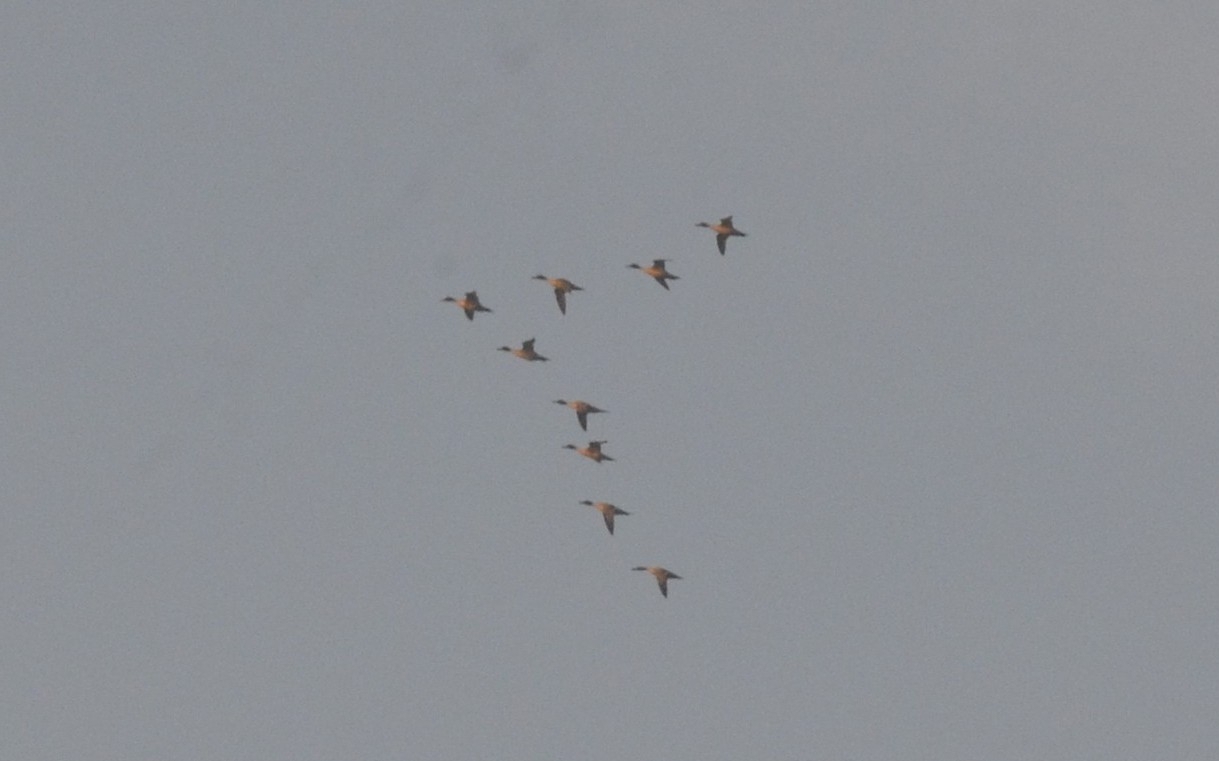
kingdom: Animalia
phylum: Chordata
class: Aves
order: Anseriformes
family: Anatidae
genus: Anas
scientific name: Anas acuta
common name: Northern pintail
